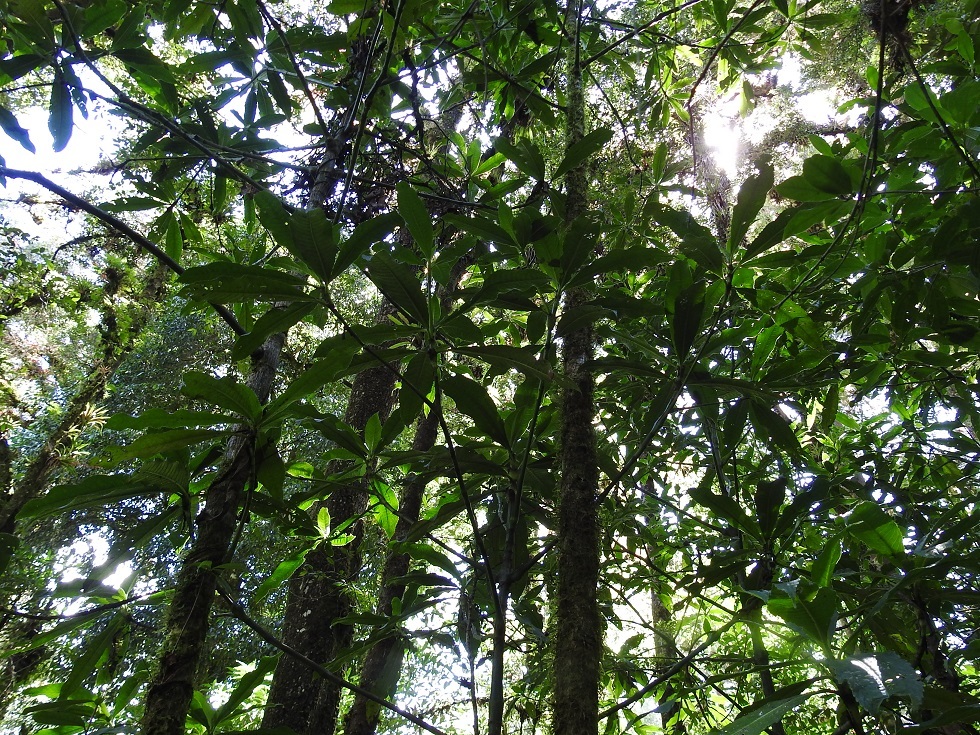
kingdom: Plantae
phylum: Tracheophyta
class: Magnoliopsida
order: Chloranthales
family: Chloranthaceae
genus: Hedyosmum
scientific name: Hedyosmum mexicanum
